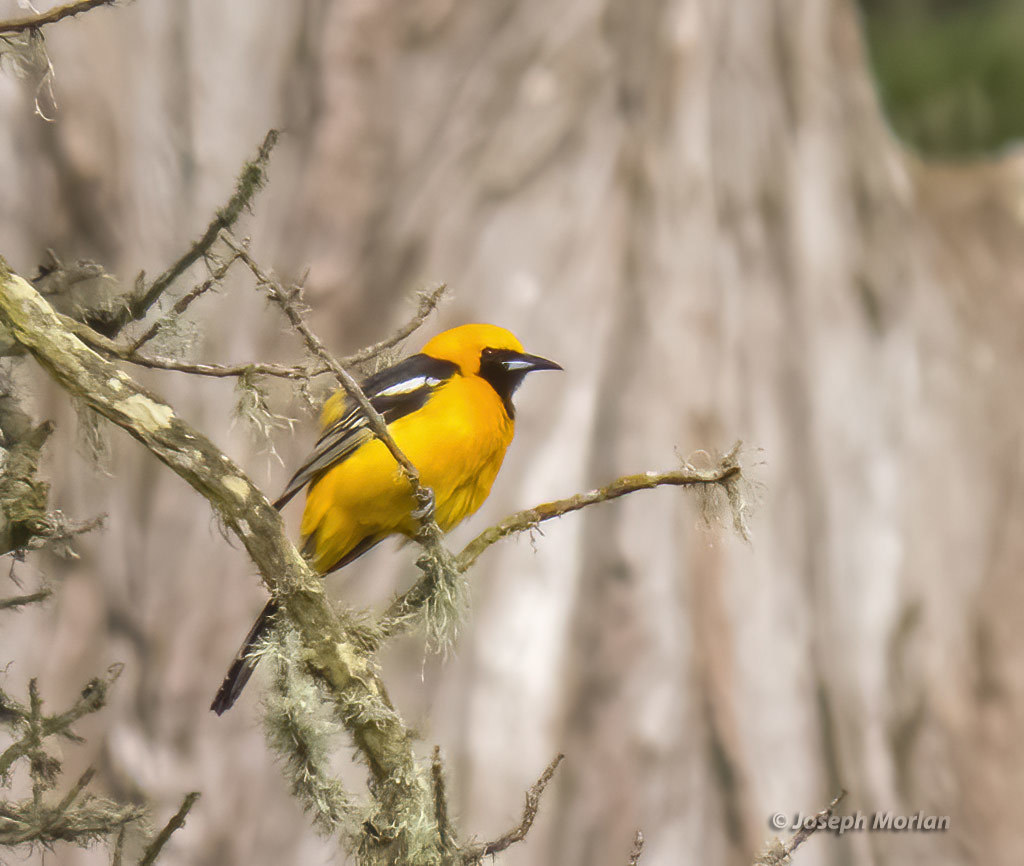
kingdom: Animalia
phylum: Chordata
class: Aves
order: Passeriformes
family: Icteridae
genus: Icterus
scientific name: Icterus cucullatus
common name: Hooded oriole
